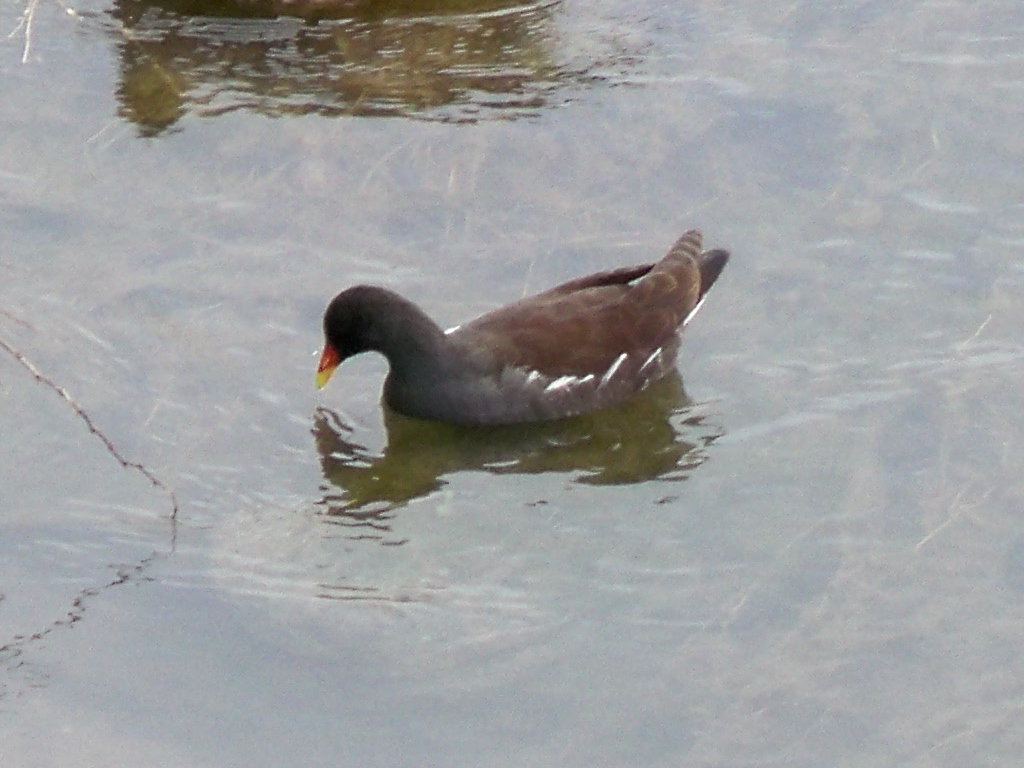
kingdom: Animalia
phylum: Chordata
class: Aves
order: Gruiformes
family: Rallidae
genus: Gallinula
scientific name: Gallinula chloropus
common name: Common moorhen
